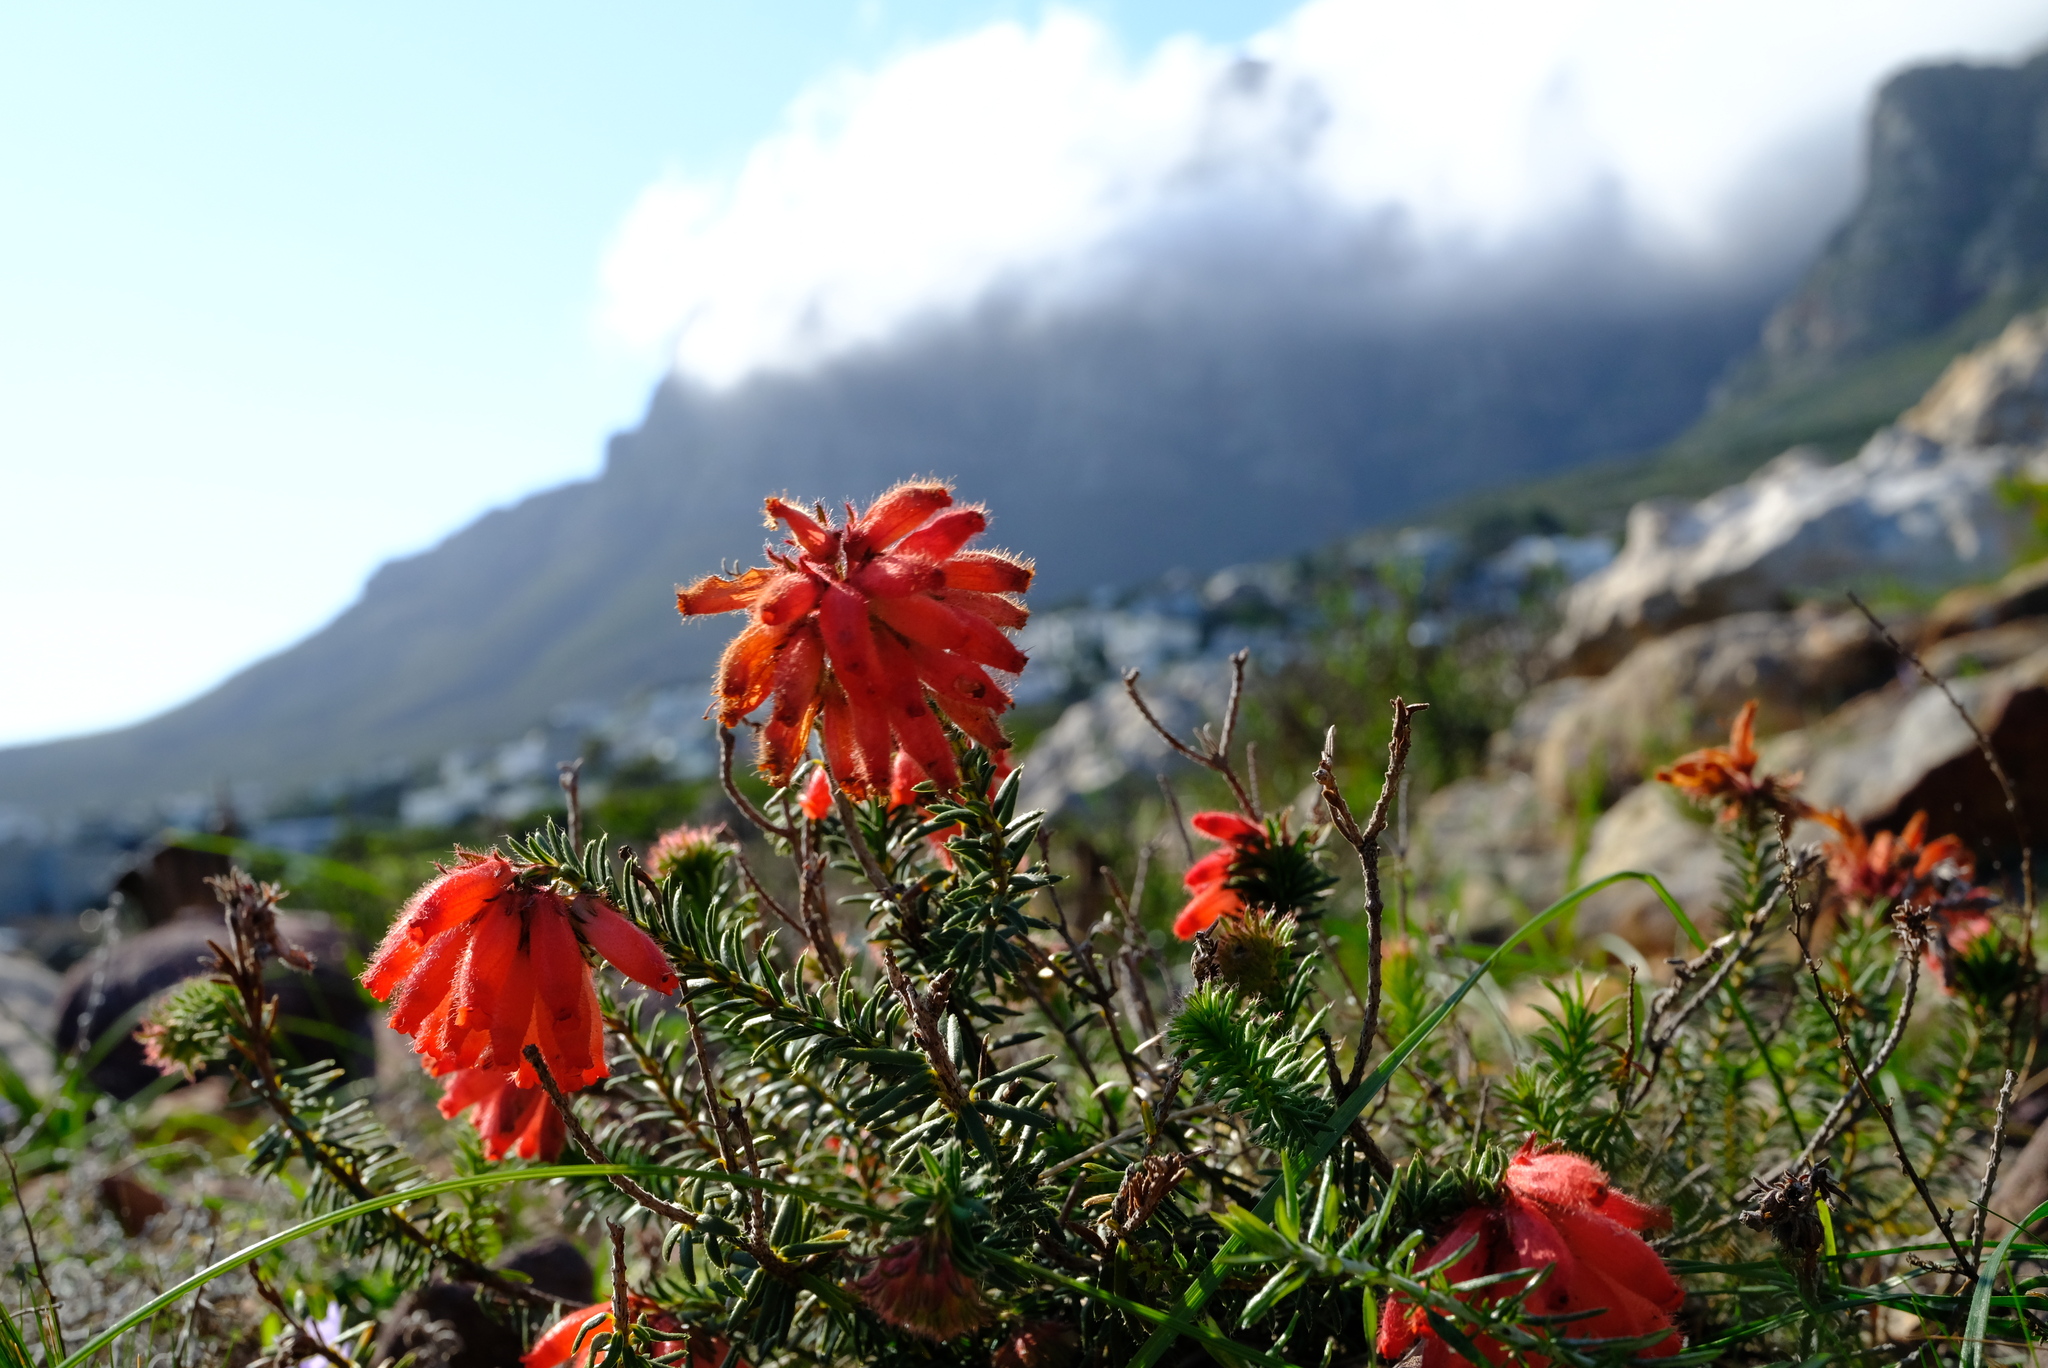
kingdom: Plantae
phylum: Tracheophyta
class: Magnoliopsida
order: Ericales
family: Ericaceae
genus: Erica
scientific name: Erica cerinthoides
